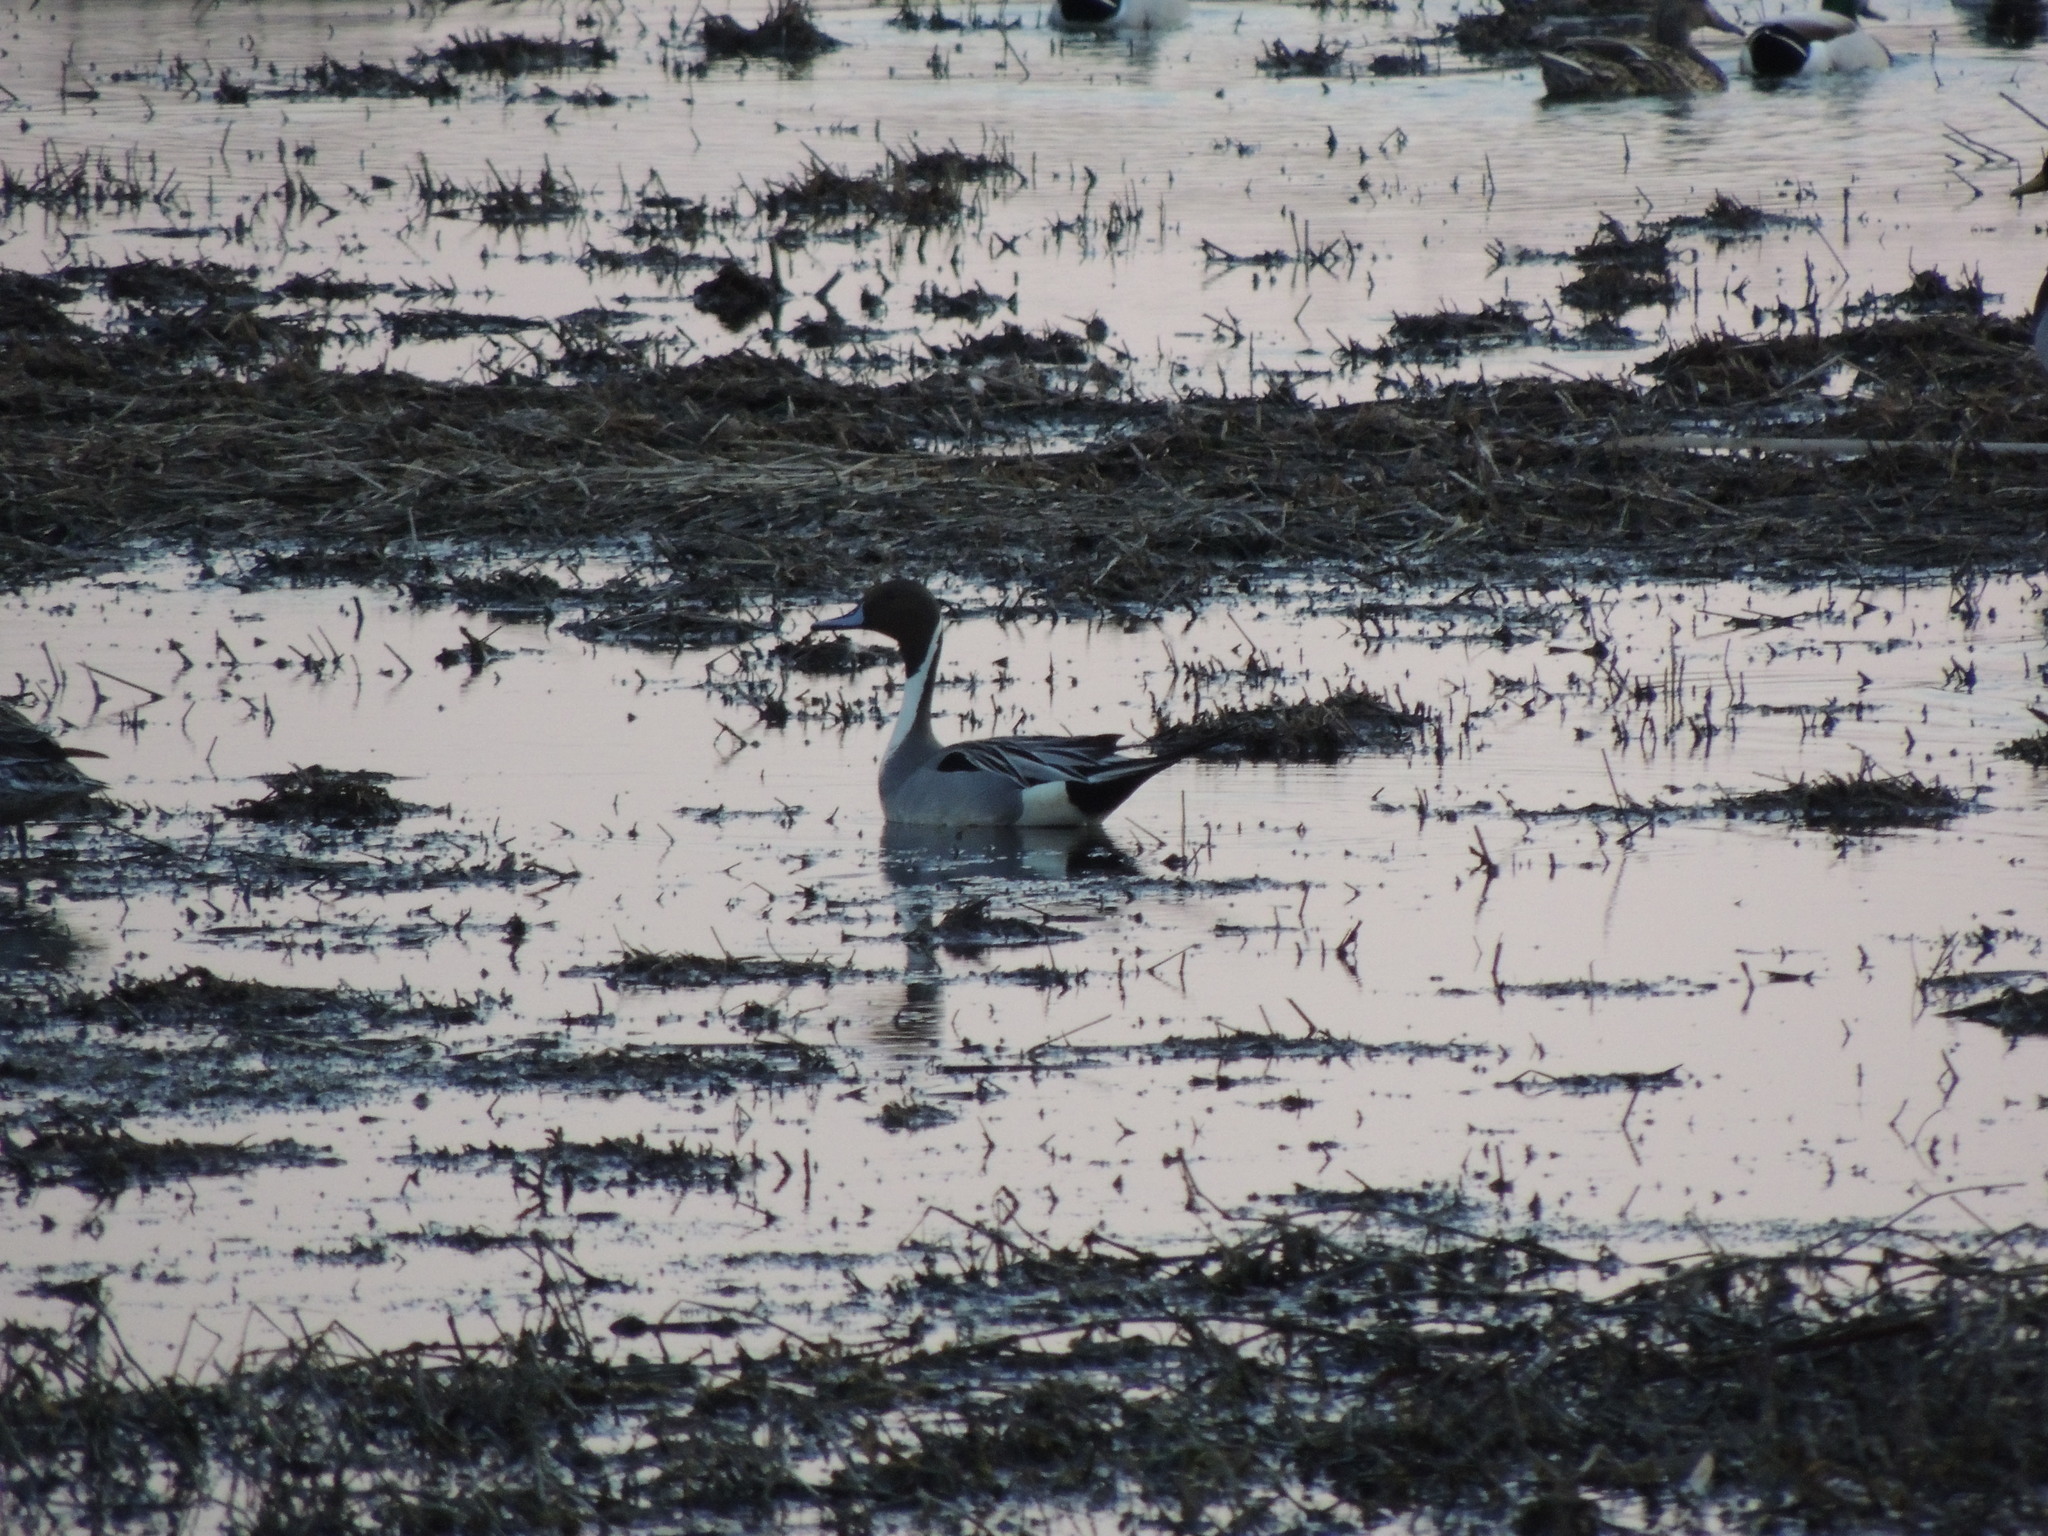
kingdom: Animalia
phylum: Chordata
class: Aves
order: Anseriformes
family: Anatidae
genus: Anas
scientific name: Anas acuta
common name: Northern pintail
